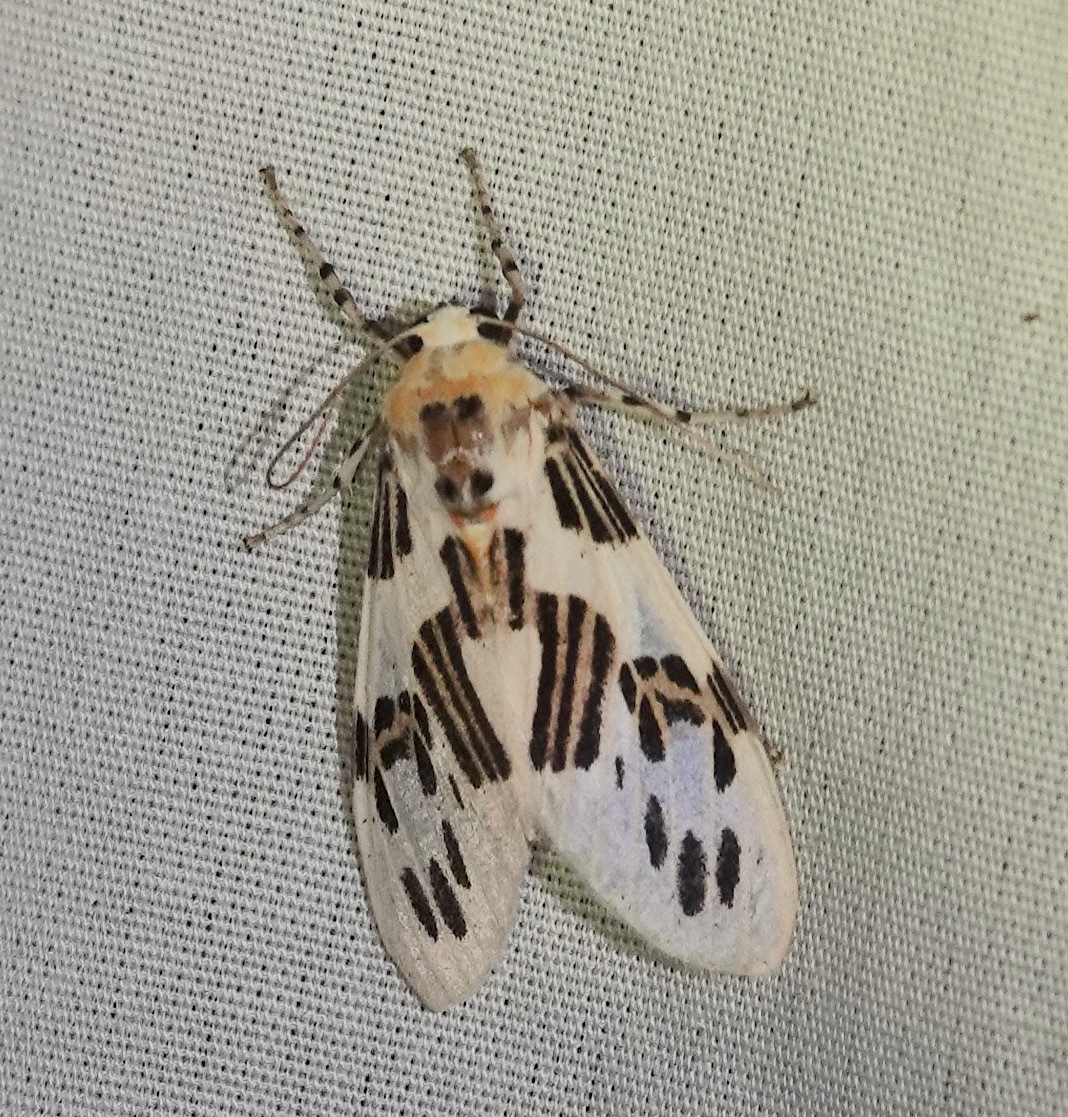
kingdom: Animalia
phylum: Arthropoda
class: Insecta
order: Lepidoptera
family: Erebidae
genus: Idalus
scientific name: Idalus daga
